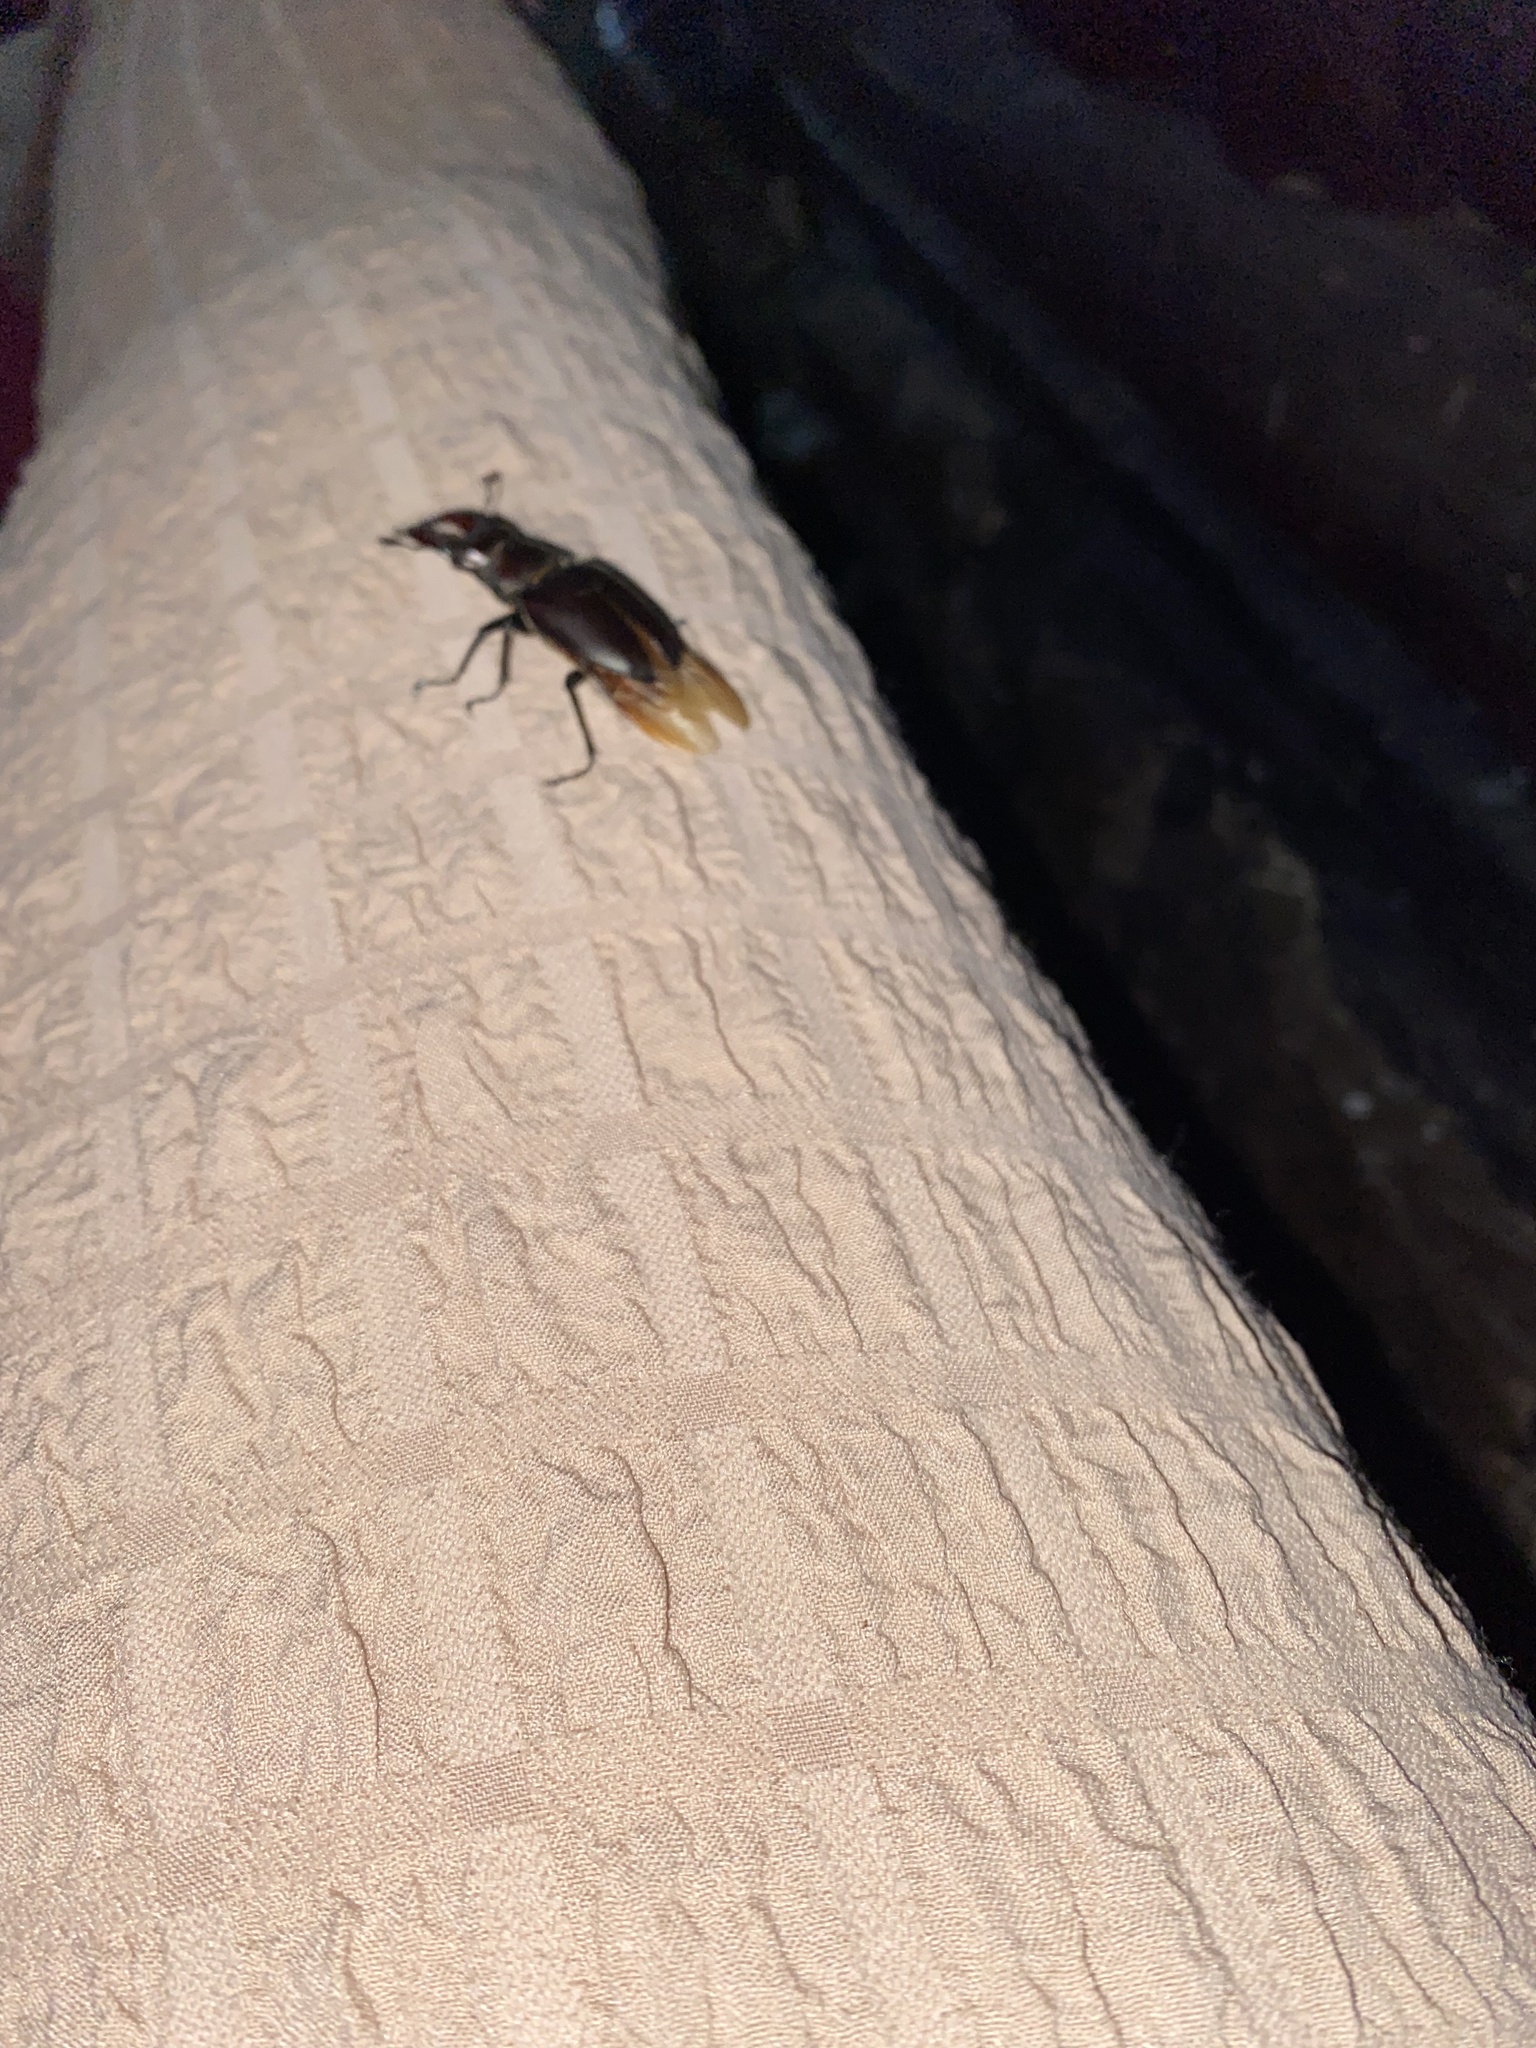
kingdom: Animalia
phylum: Arthropoda
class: Insecta
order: Coleoptera
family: Lucanidae
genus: Lucanus
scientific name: Lucanus cervus
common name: Stag beetle
